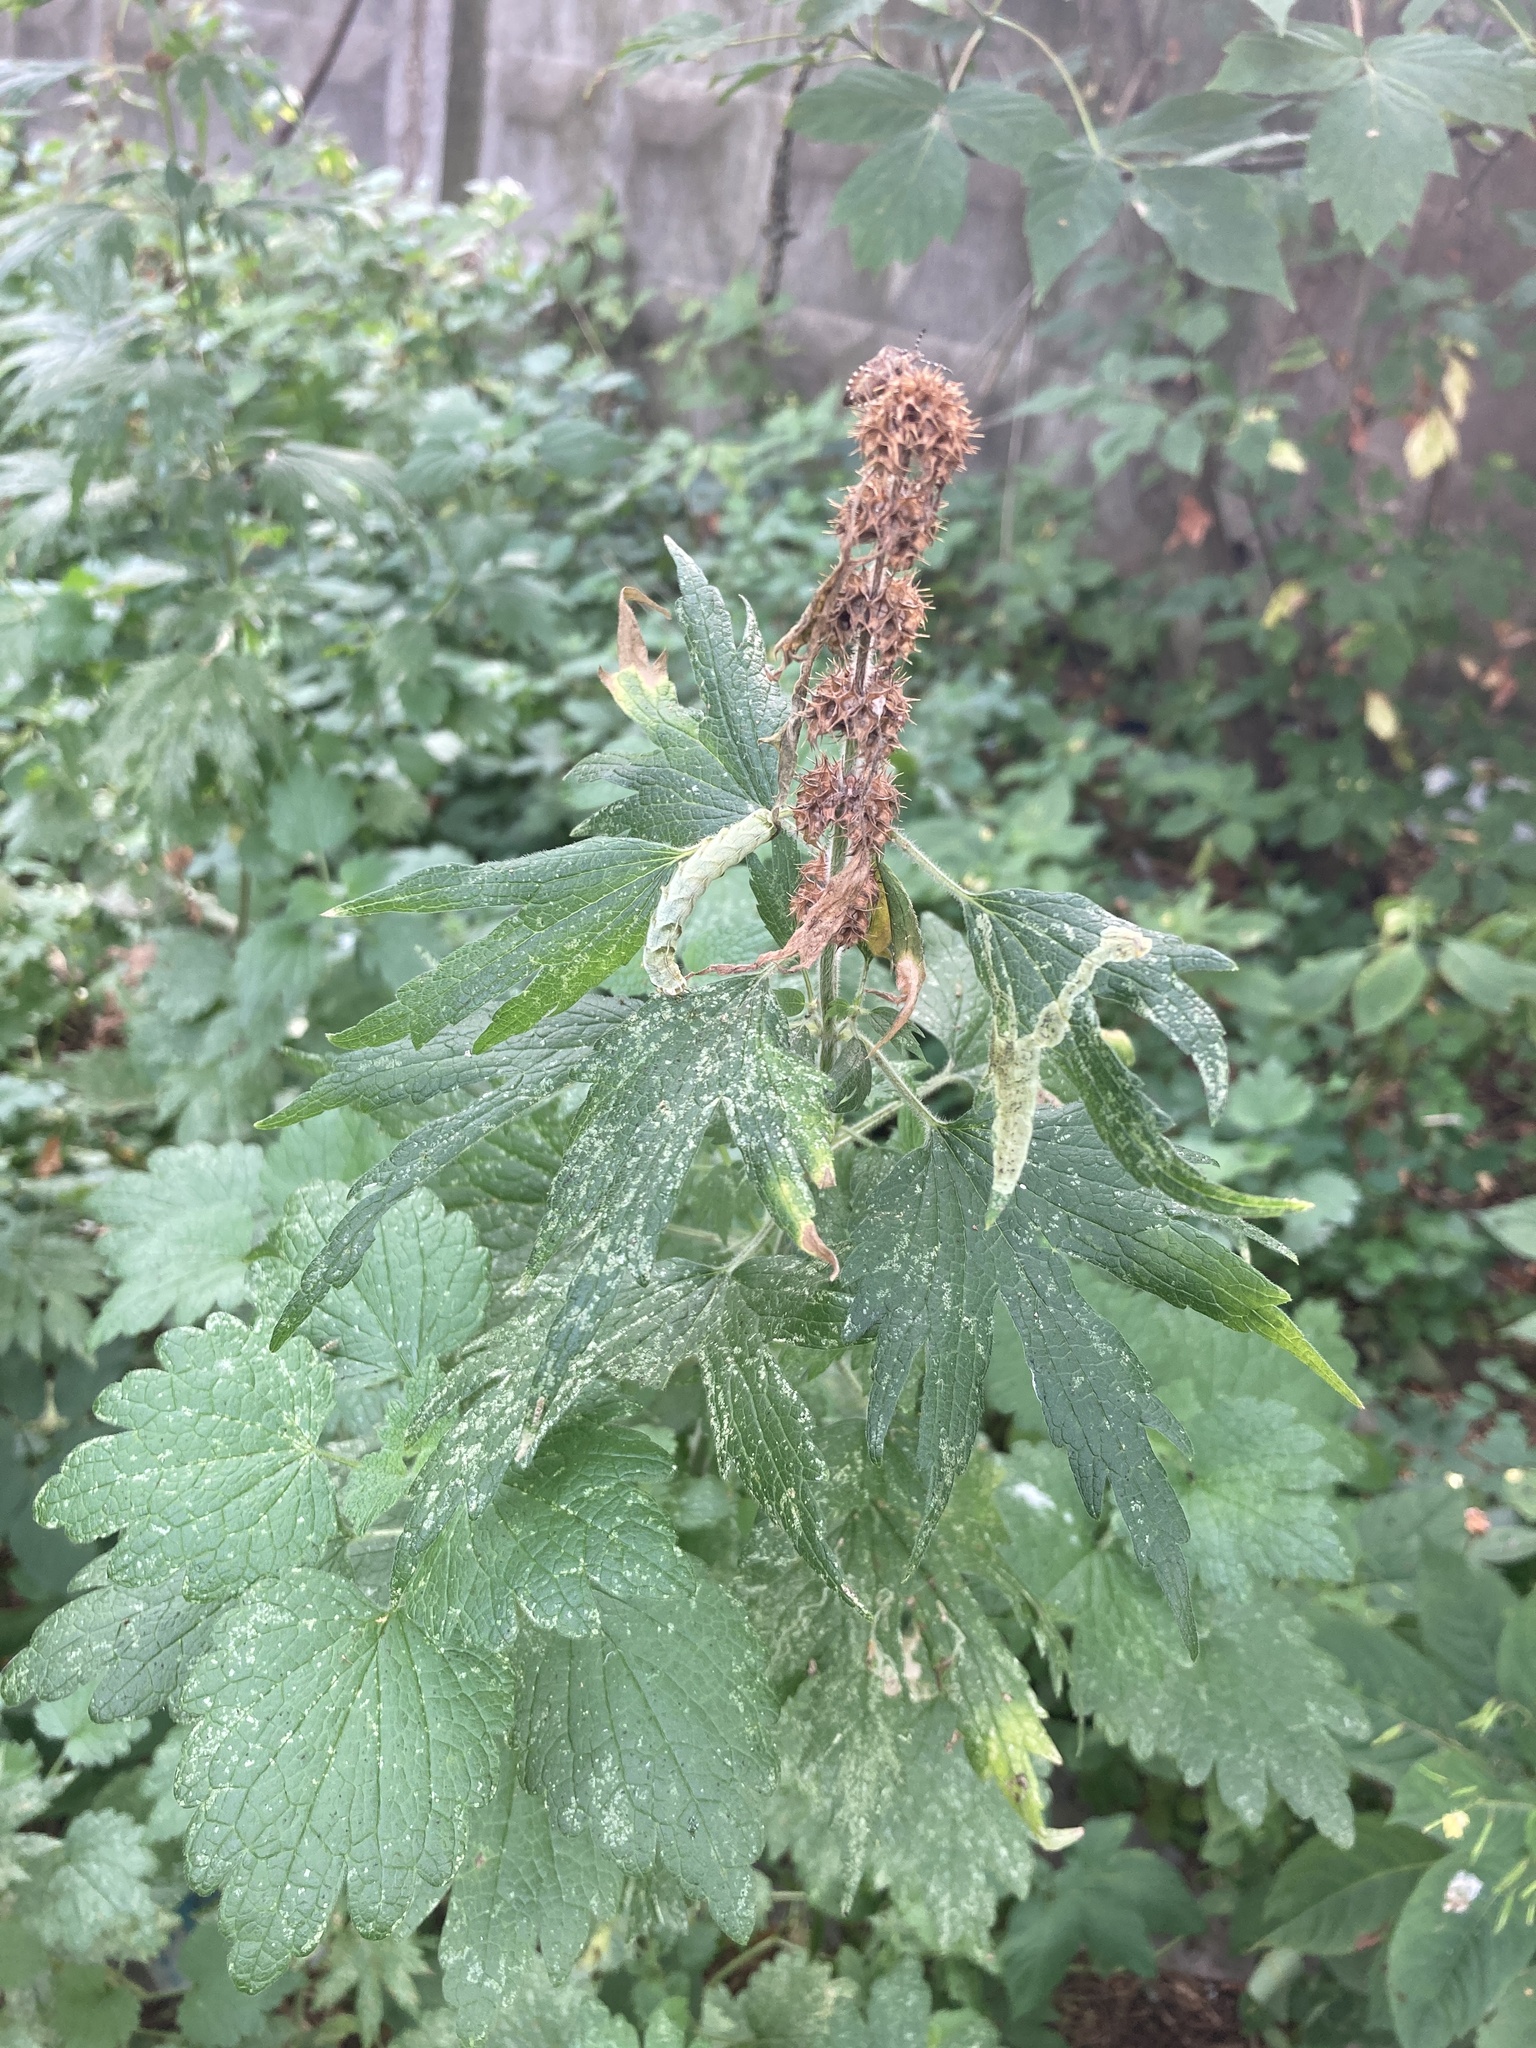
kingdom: Plantae
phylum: Tracheophyta
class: Magnoliopsida
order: Lamiales
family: Lamiaceae
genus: Leonurus
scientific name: Leonurus quinquelobatus
